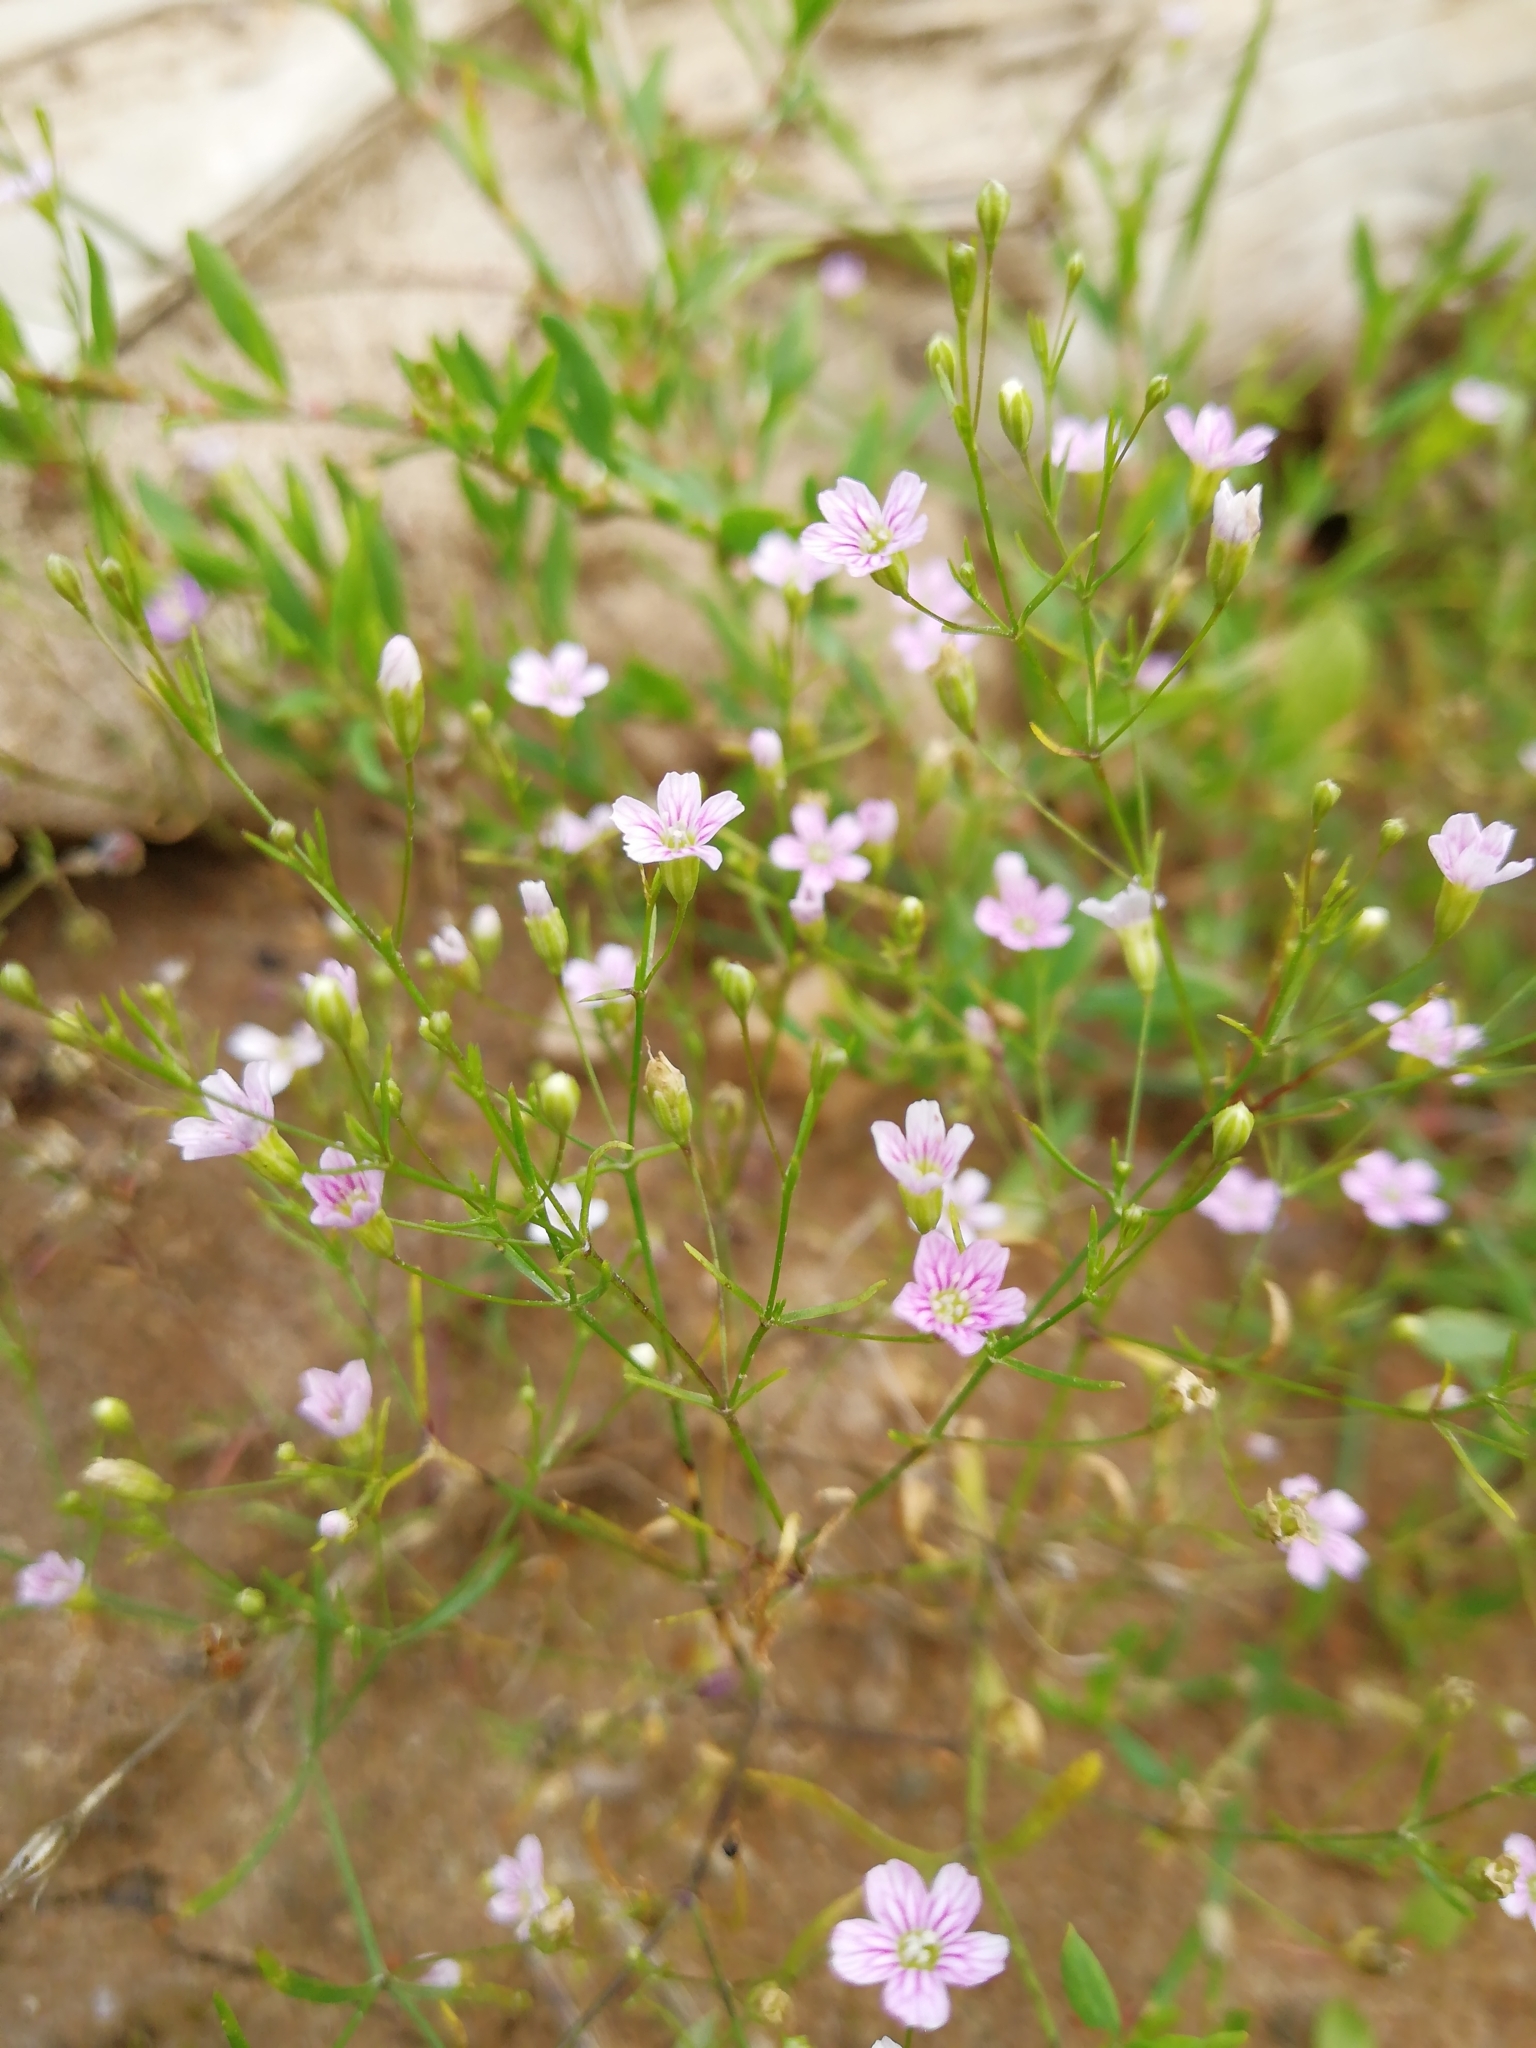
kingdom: Plantae
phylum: Tracheophyta
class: Magnoliopsida
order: Caryophyllales
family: Caryophyllaceae
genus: Psammophiliella
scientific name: Psammophiliella muralis
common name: Cushion baby's-breath
